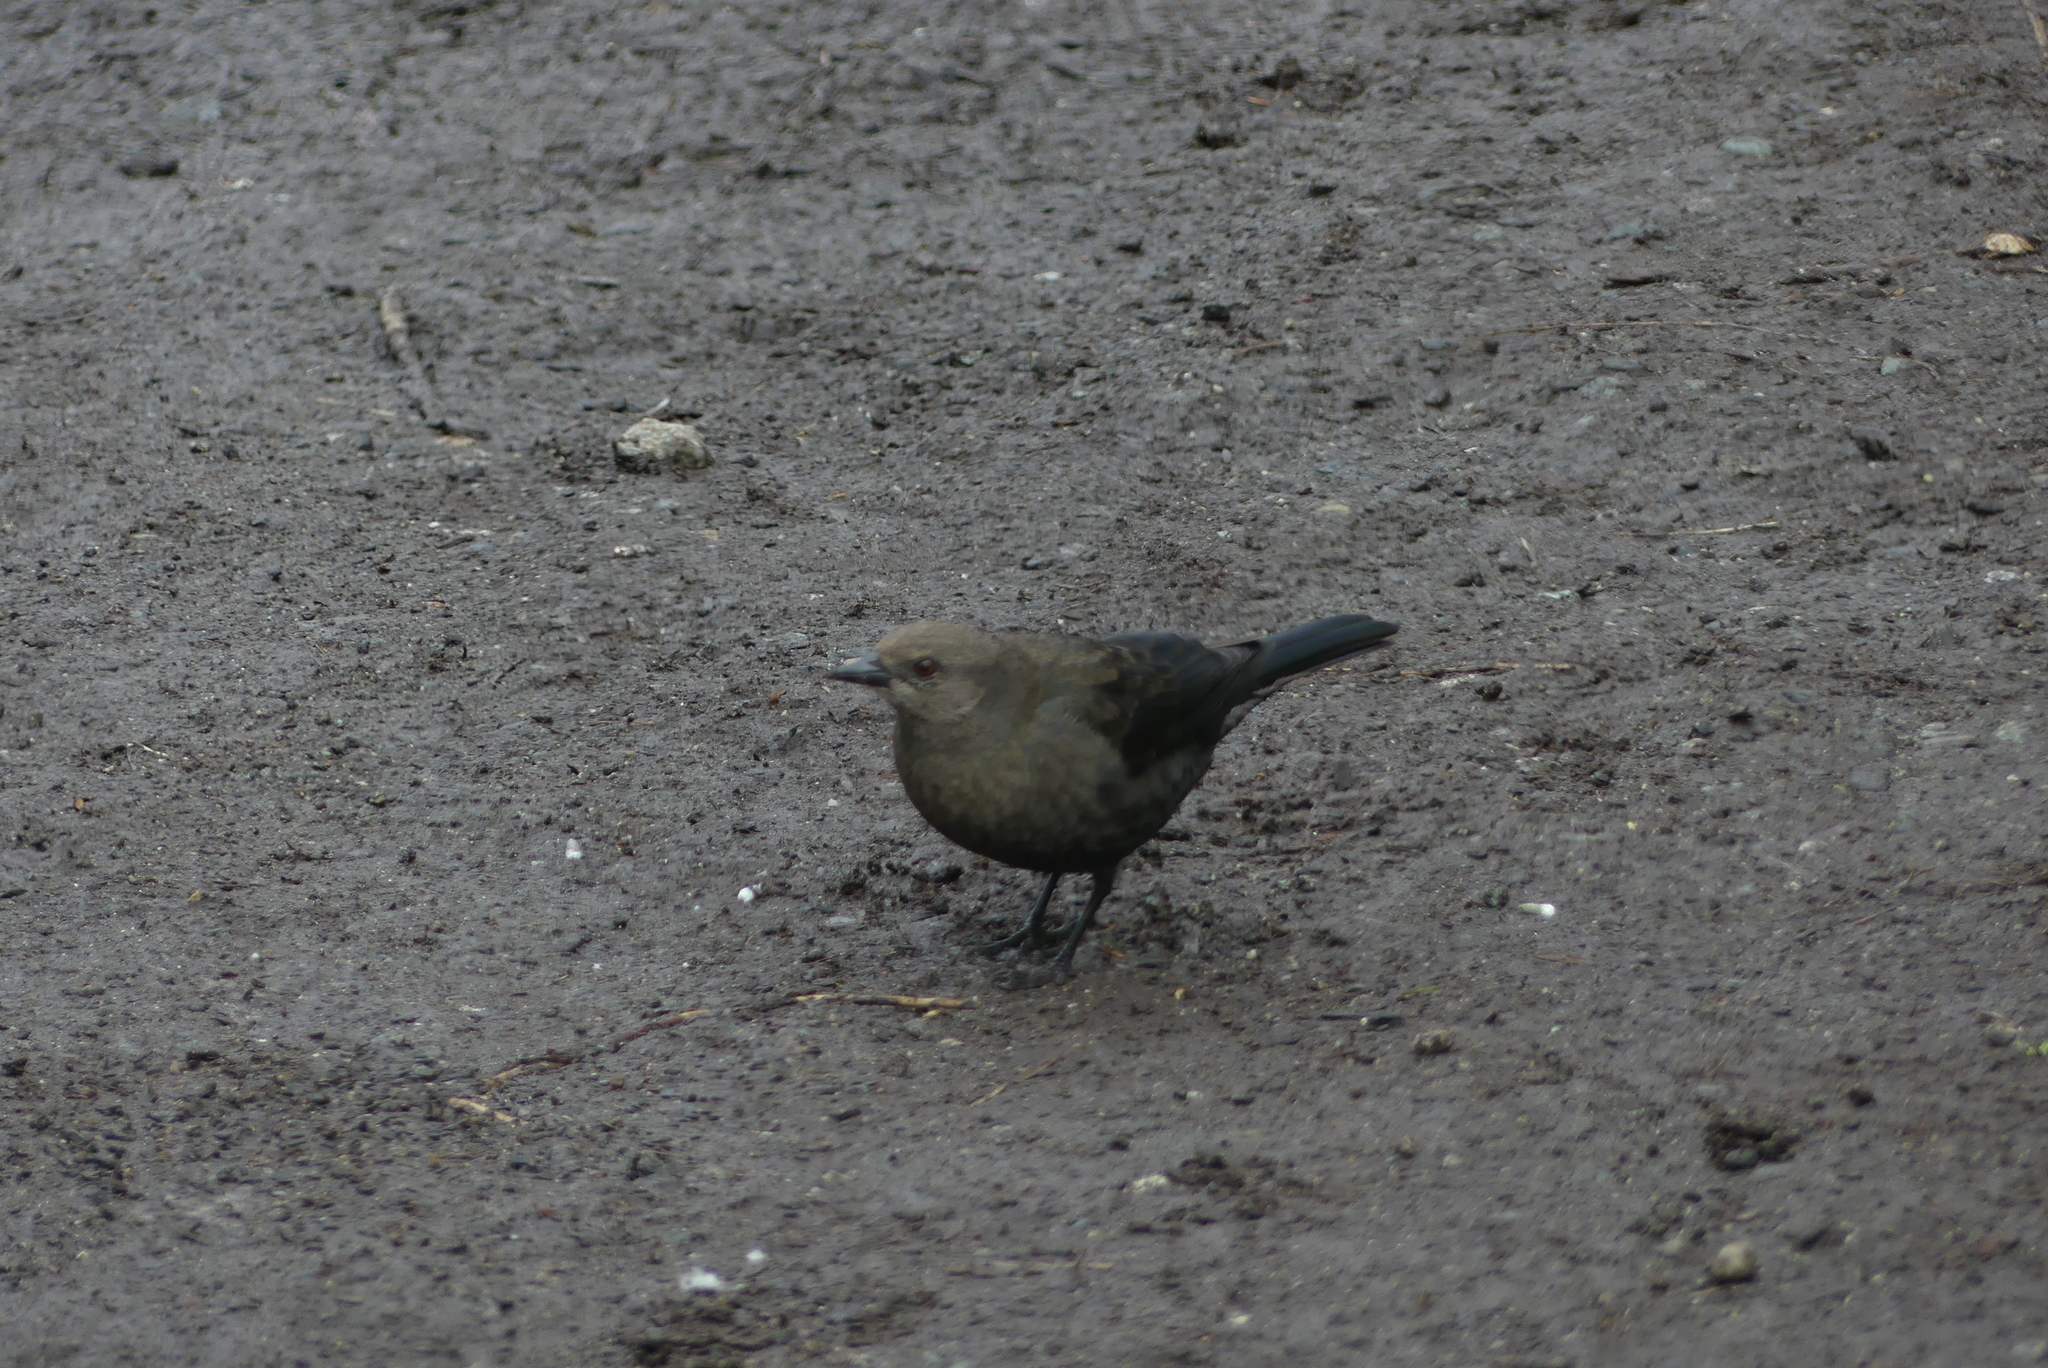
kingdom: Animalia
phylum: Chordata
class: Aves
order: Passeriformes
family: Icteridae
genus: Euphagus
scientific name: Euphagus cyanocephalus
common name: Brewer's blackbird
